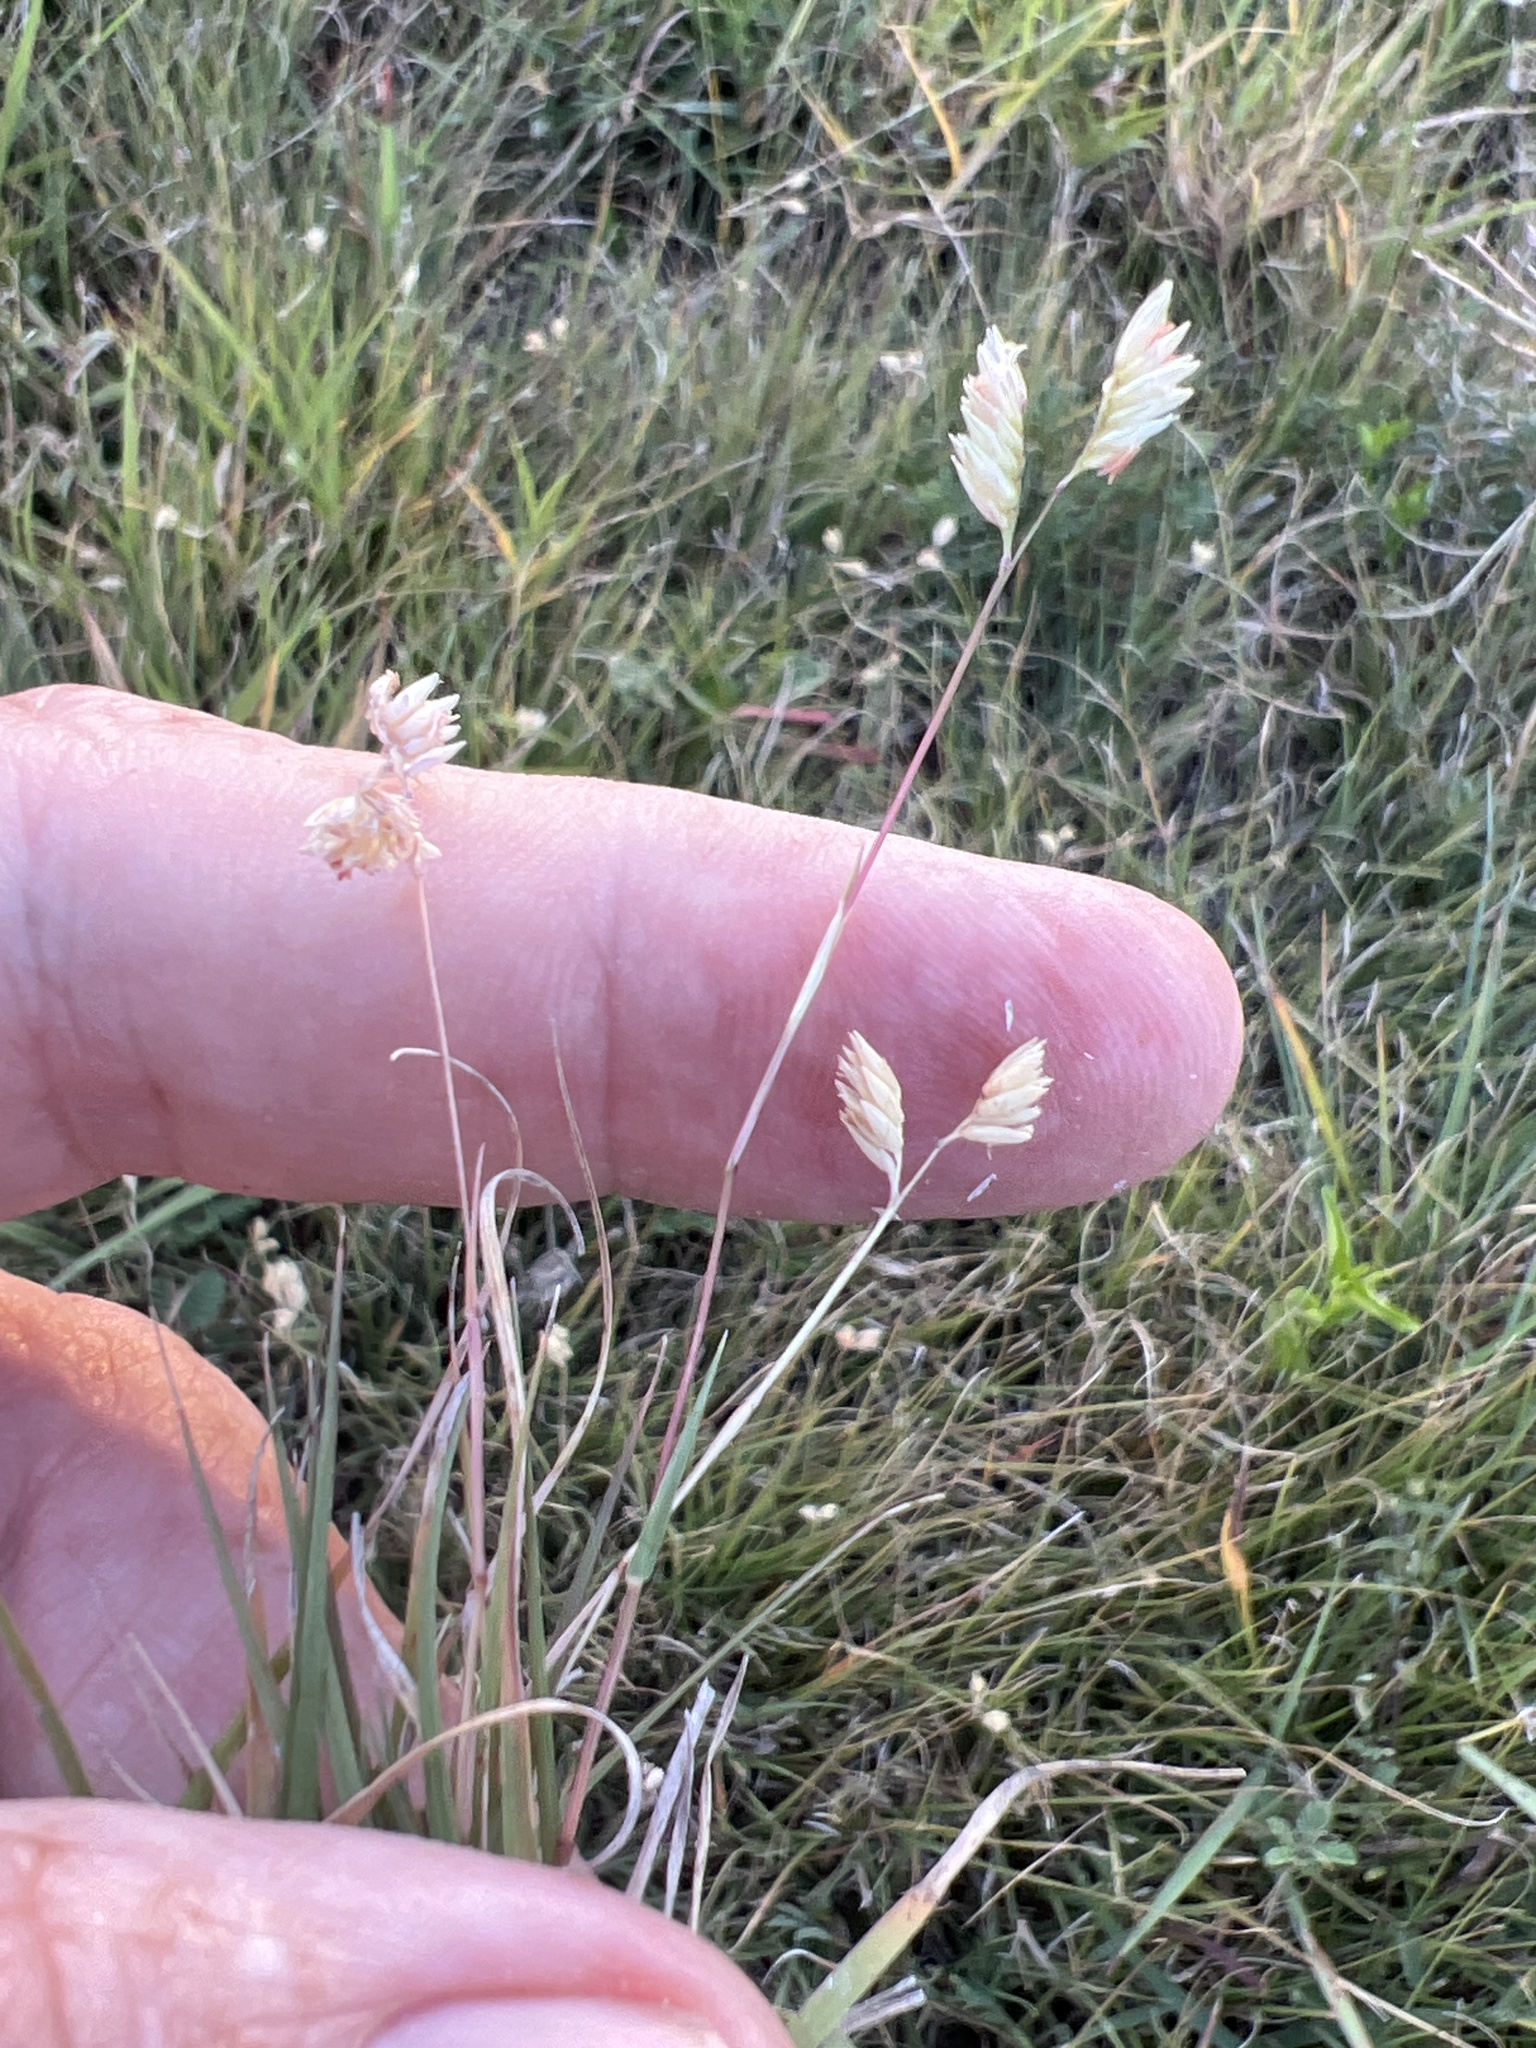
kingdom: Plantae
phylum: Tracheophyta
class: Liliopsida
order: Poales
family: Poaceae
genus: Bouteloua
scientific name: Bouteloua dactyloides
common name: Buffalo grass
